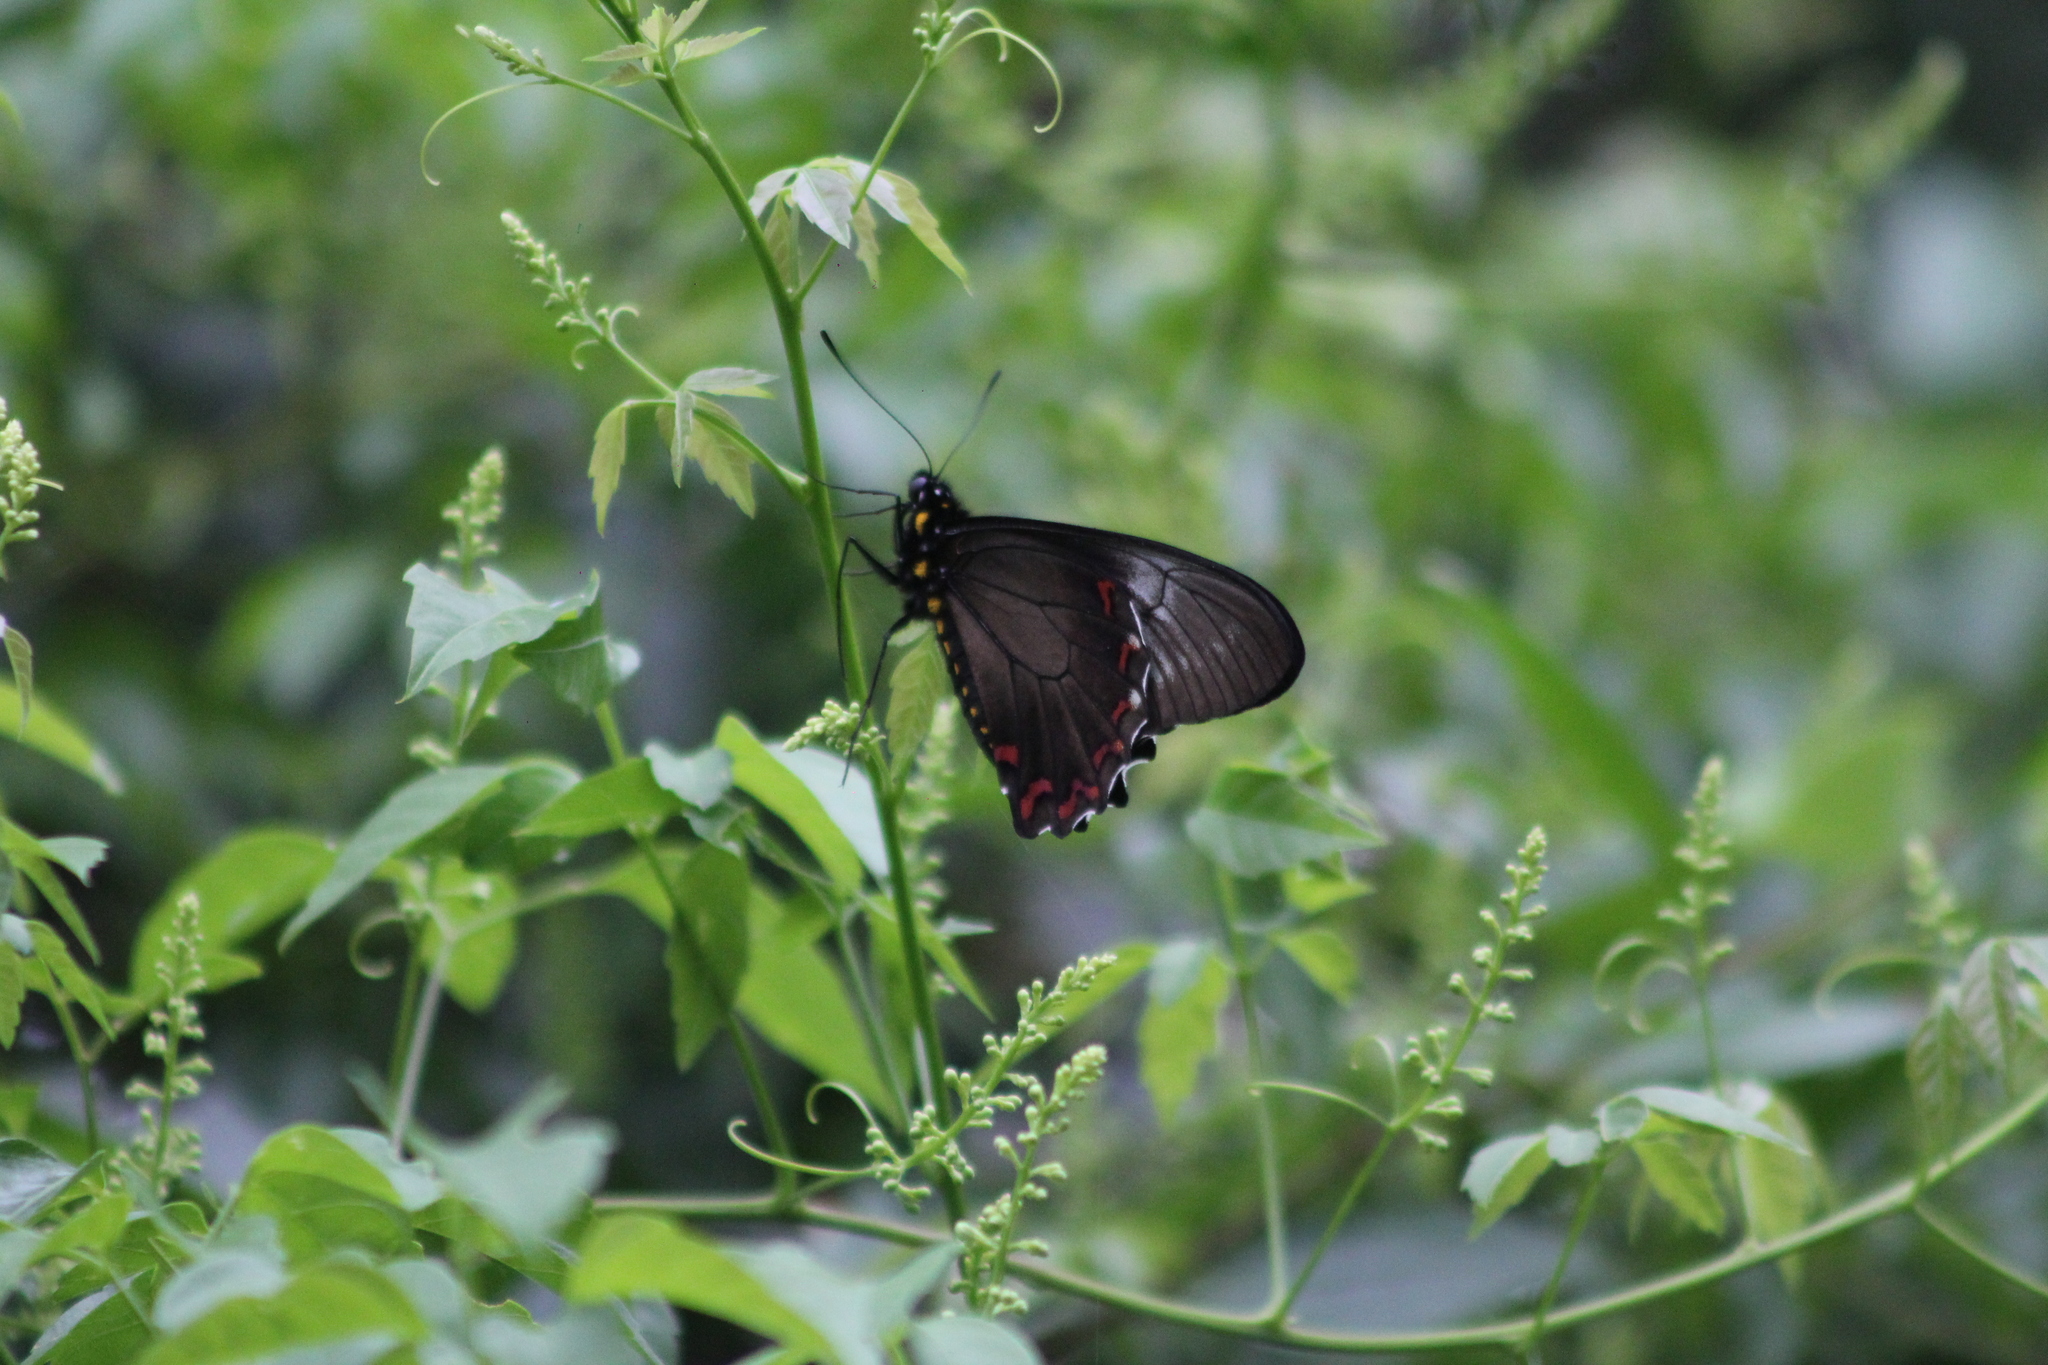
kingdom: Animalia
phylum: Arthropoda
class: Insecta
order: Lepidoptera
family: Papilionidae
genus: Battus
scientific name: Battus polystictus
